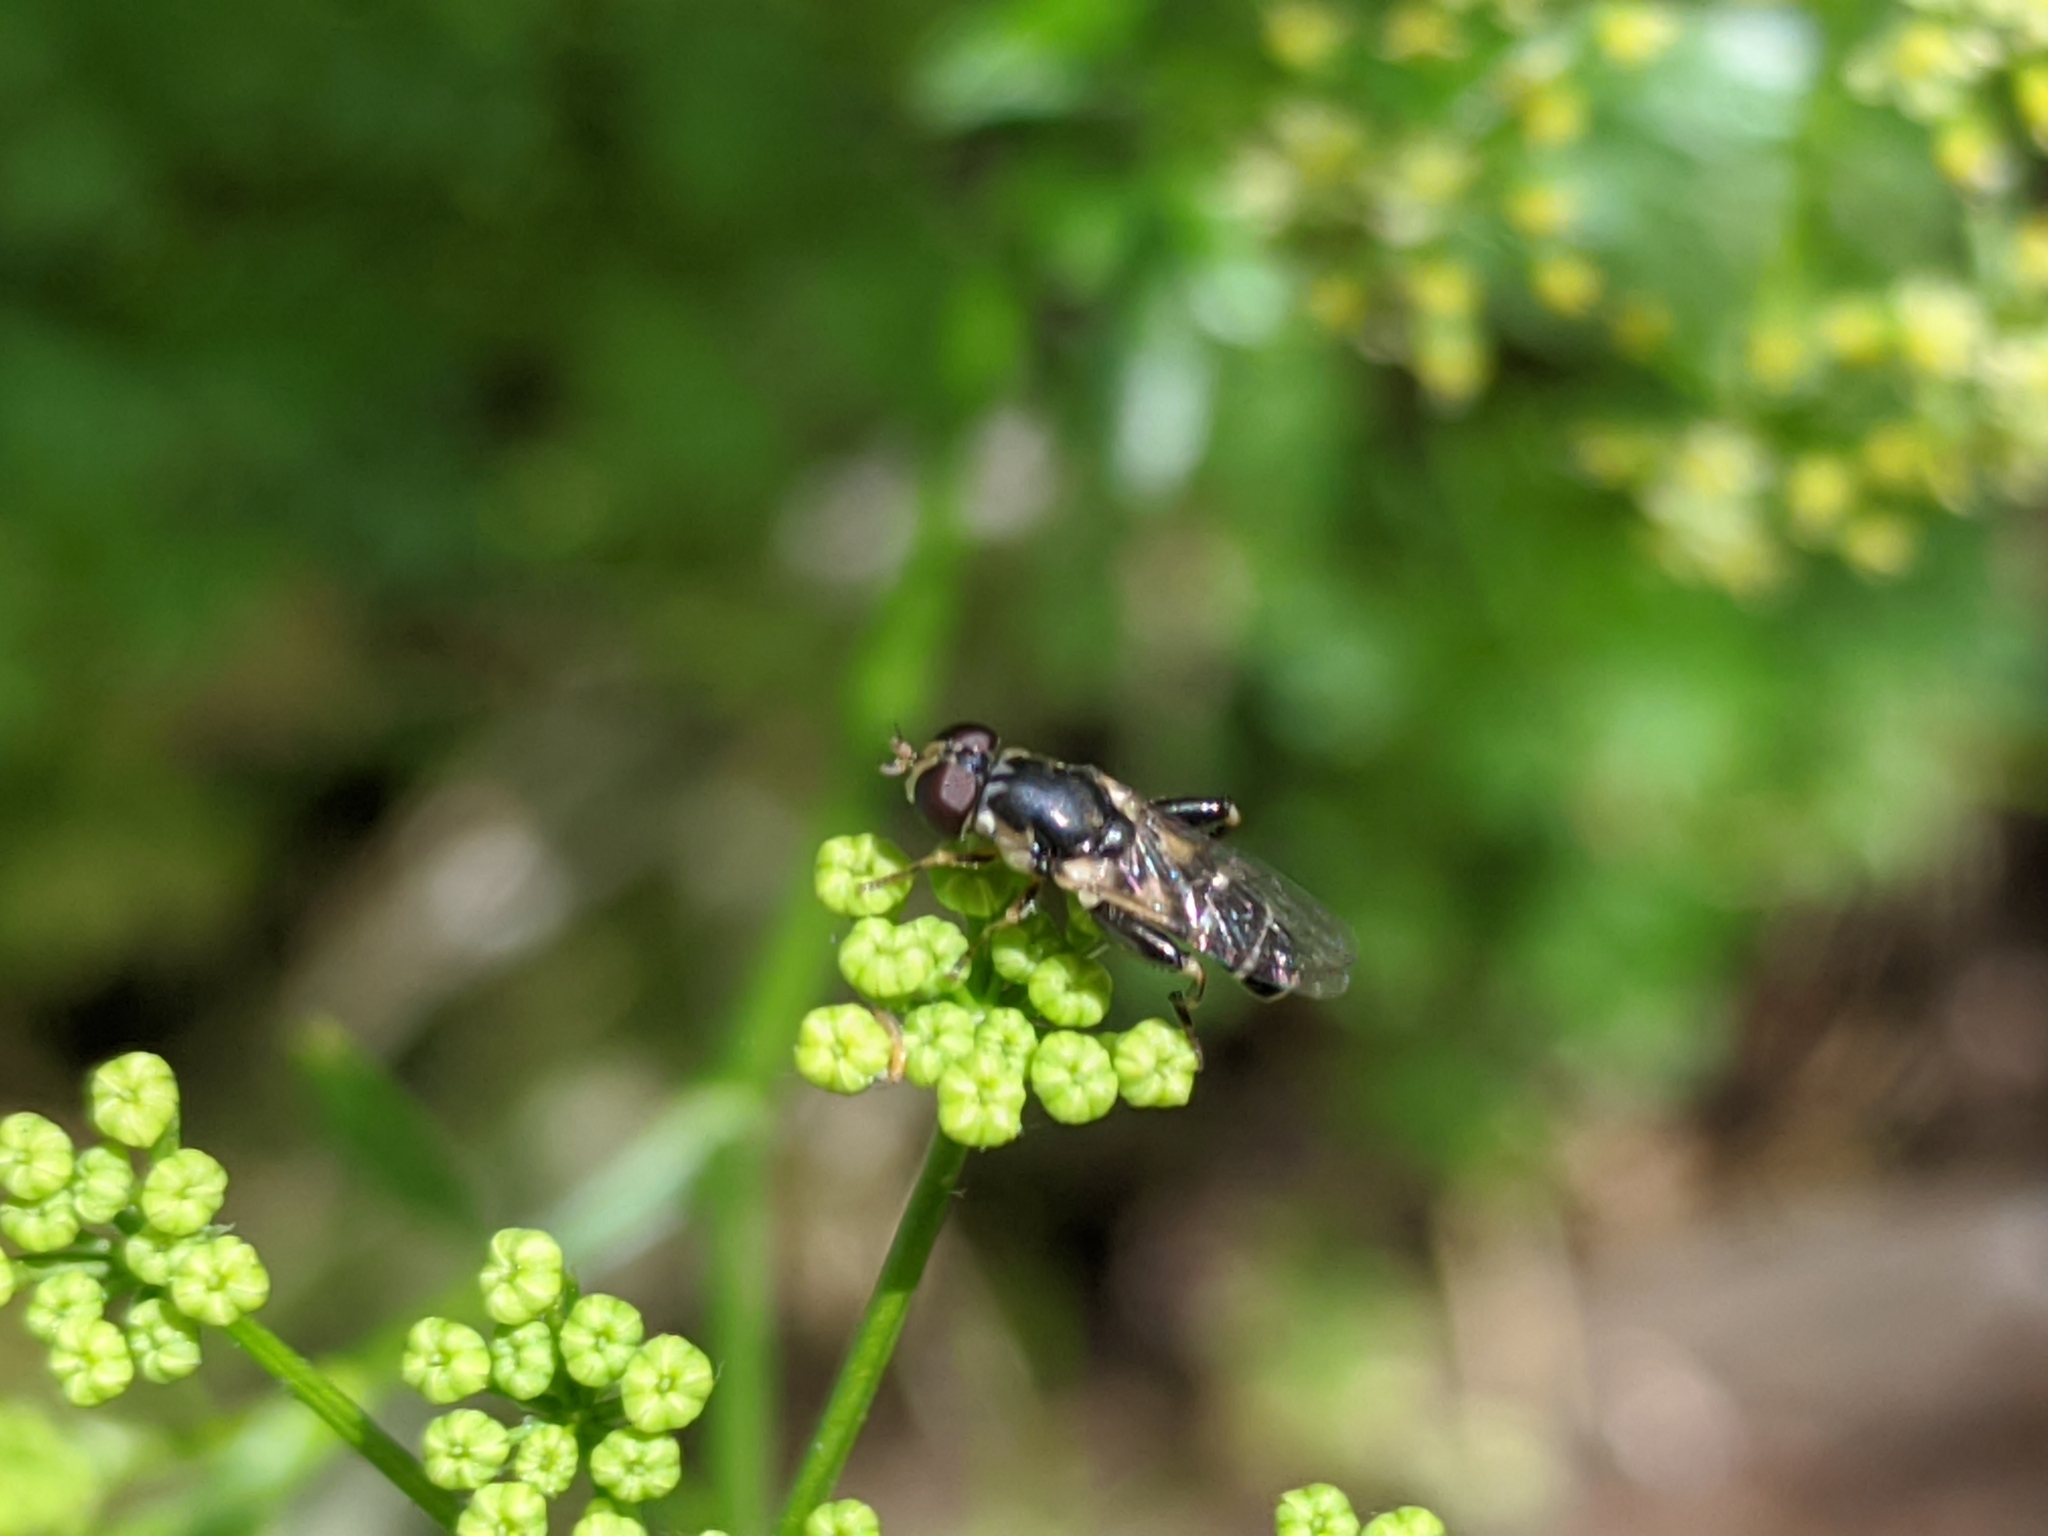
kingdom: Animalia
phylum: Arthropoda
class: Insecta
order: Diptera
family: Syrphidae
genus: Syritta
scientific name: Syritta pipiens
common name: Hover fly
